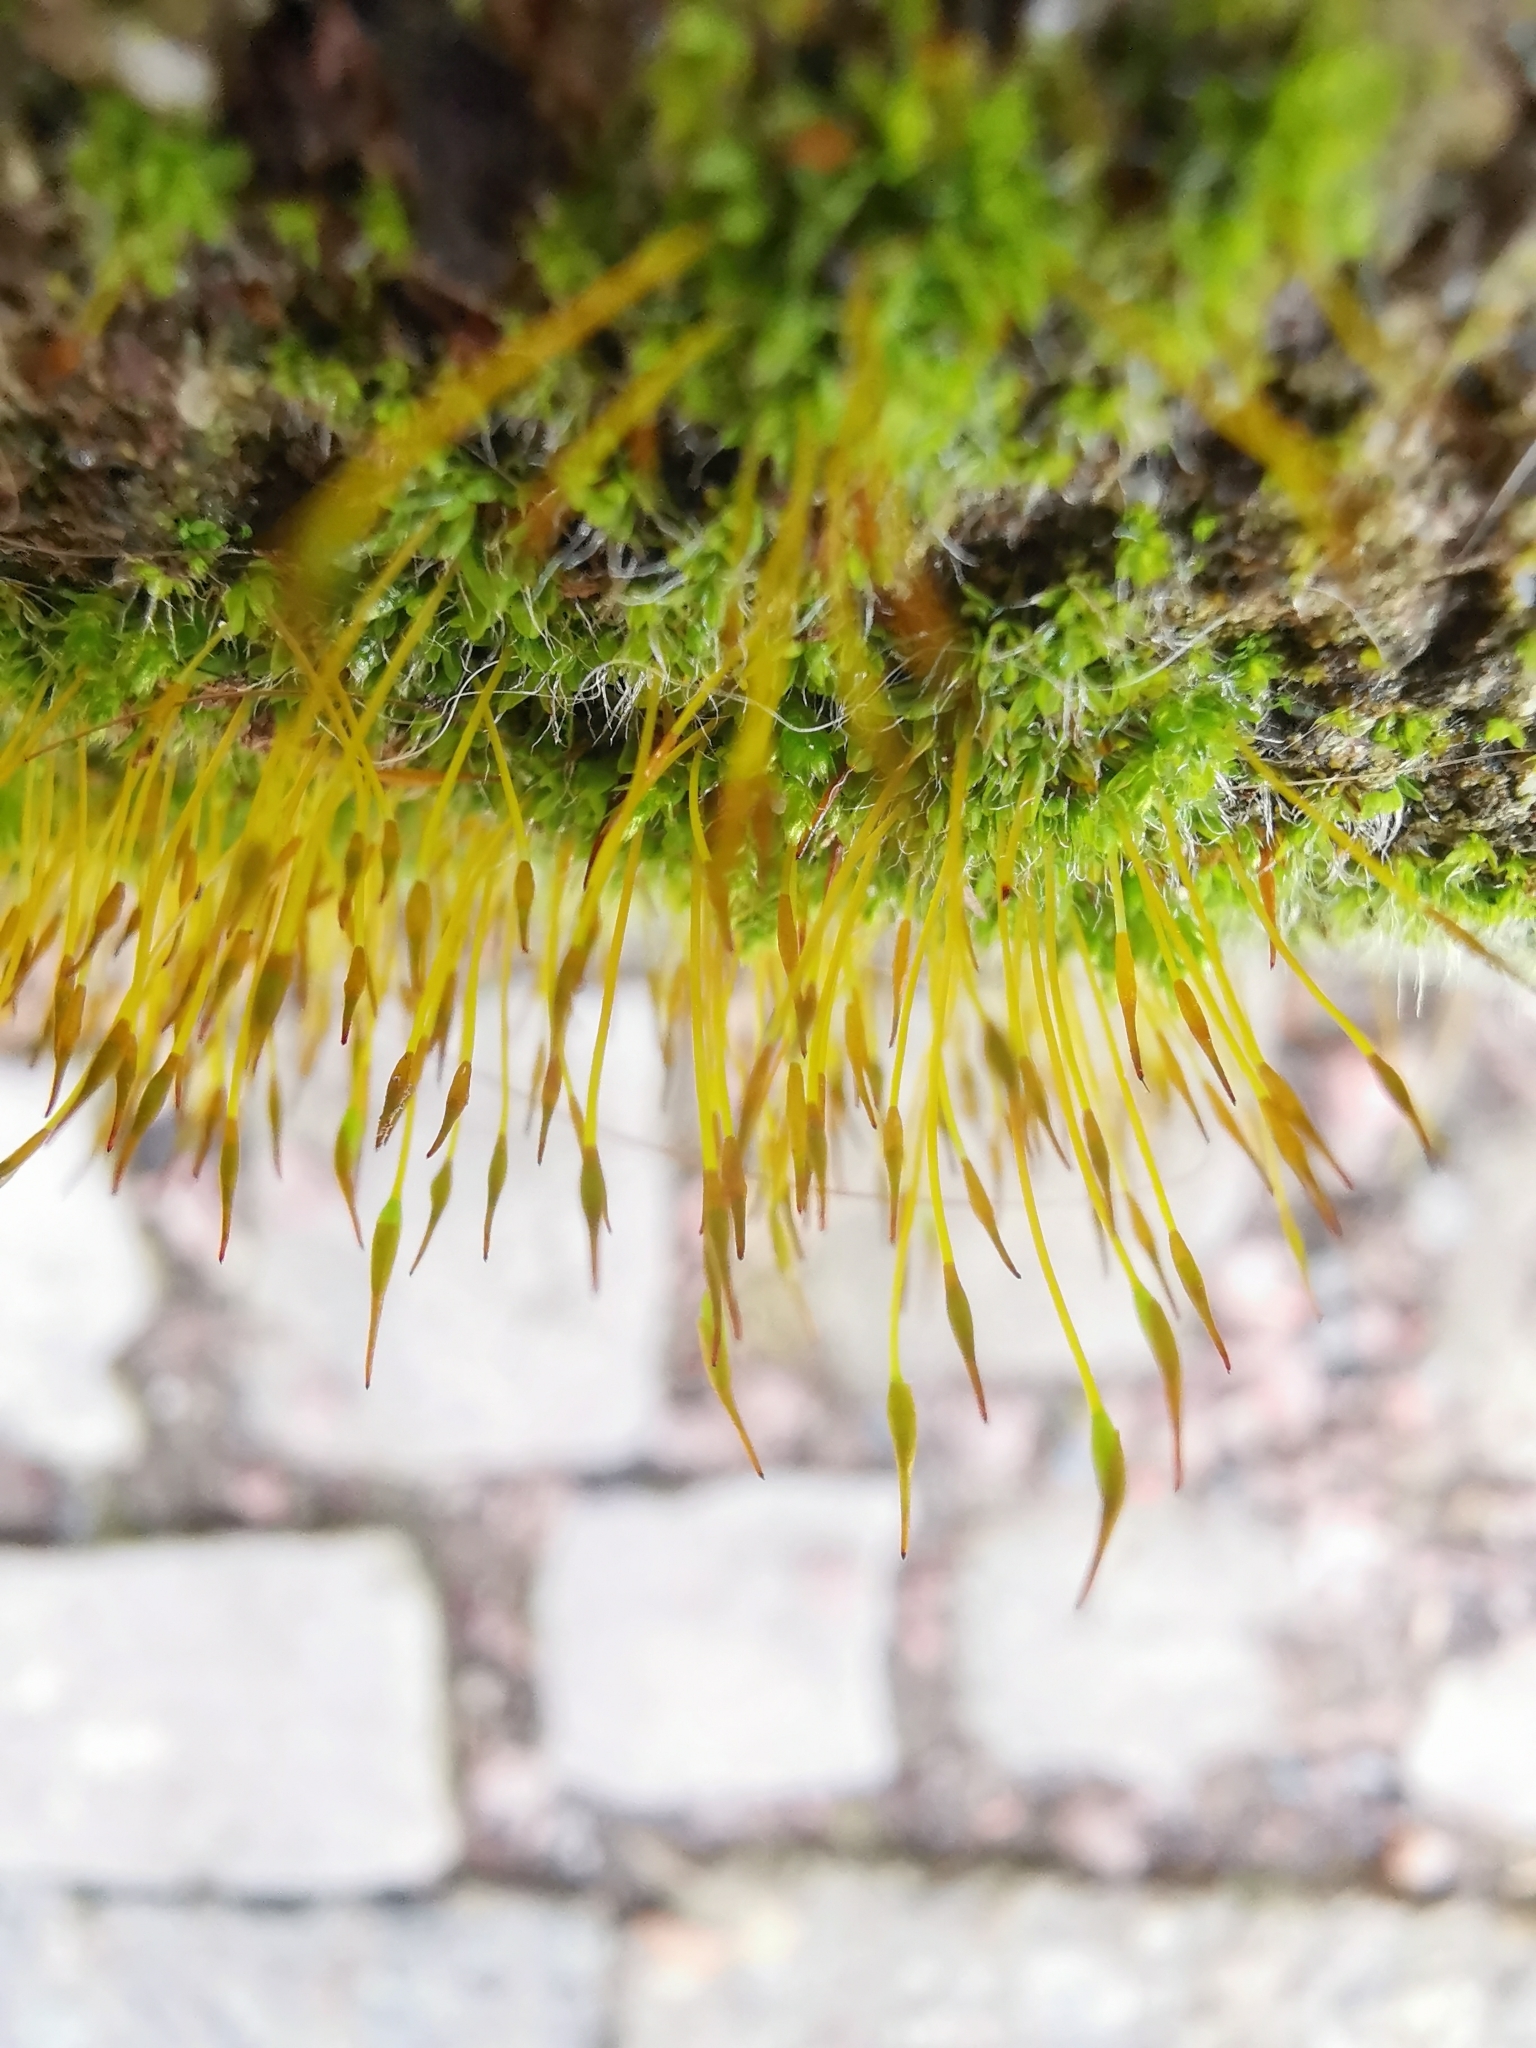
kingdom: Plantae
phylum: Bryophyta
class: Bryopsida
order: Pottiales
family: Pottiaceae
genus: Tortula
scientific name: Tortula muralis
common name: Wall screw-moss
